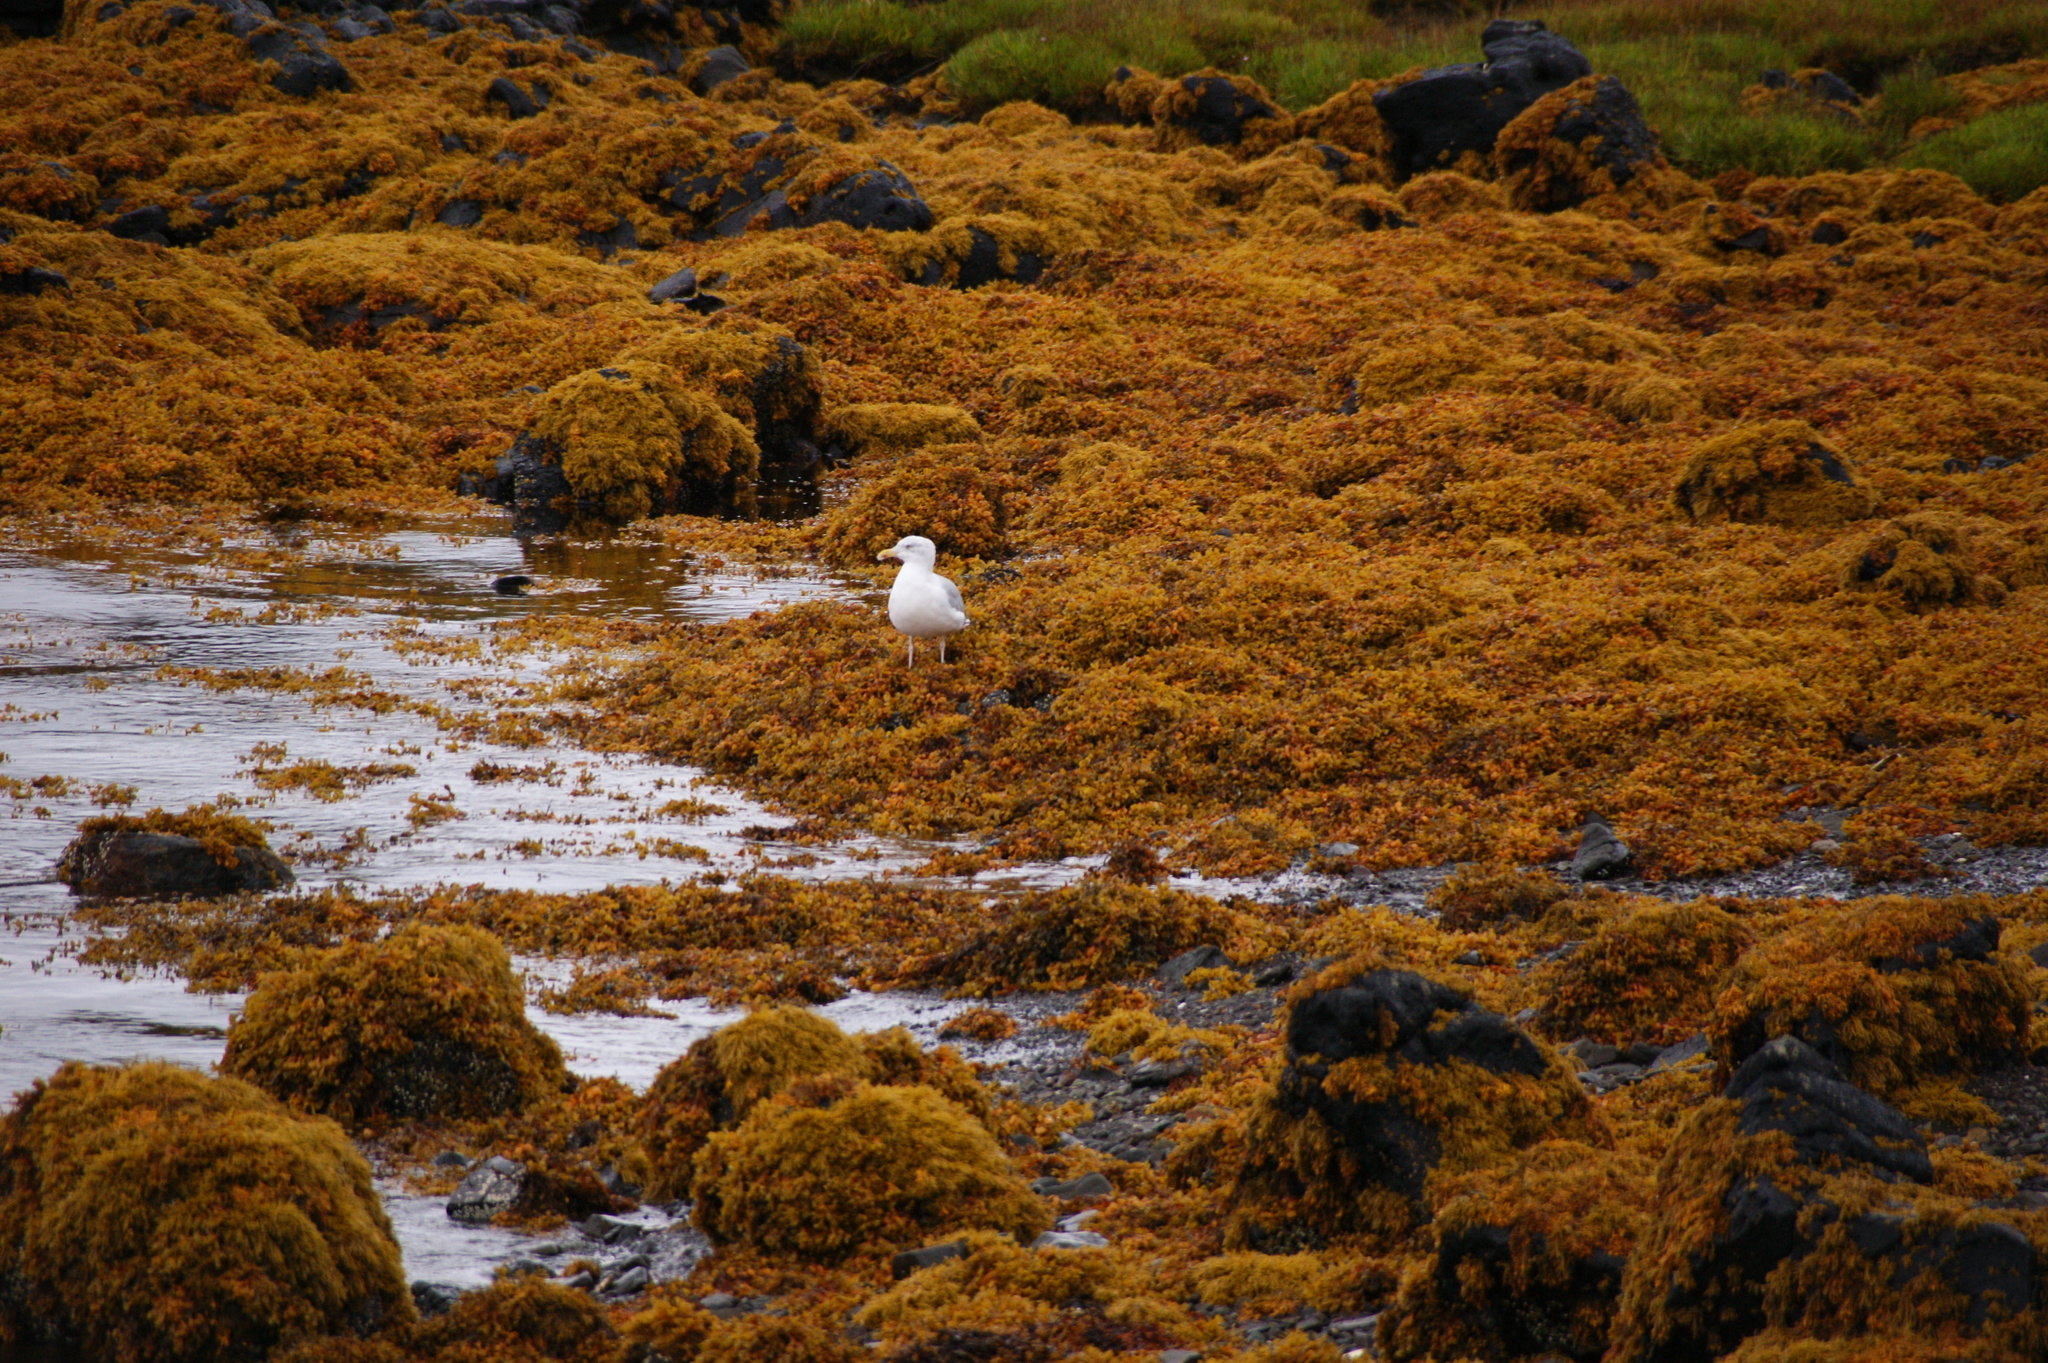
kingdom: Animalia
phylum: Chordata
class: Aves
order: Charadriiformes
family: Laridae
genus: Larus
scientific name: Larus argentatus
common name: Herring gull
